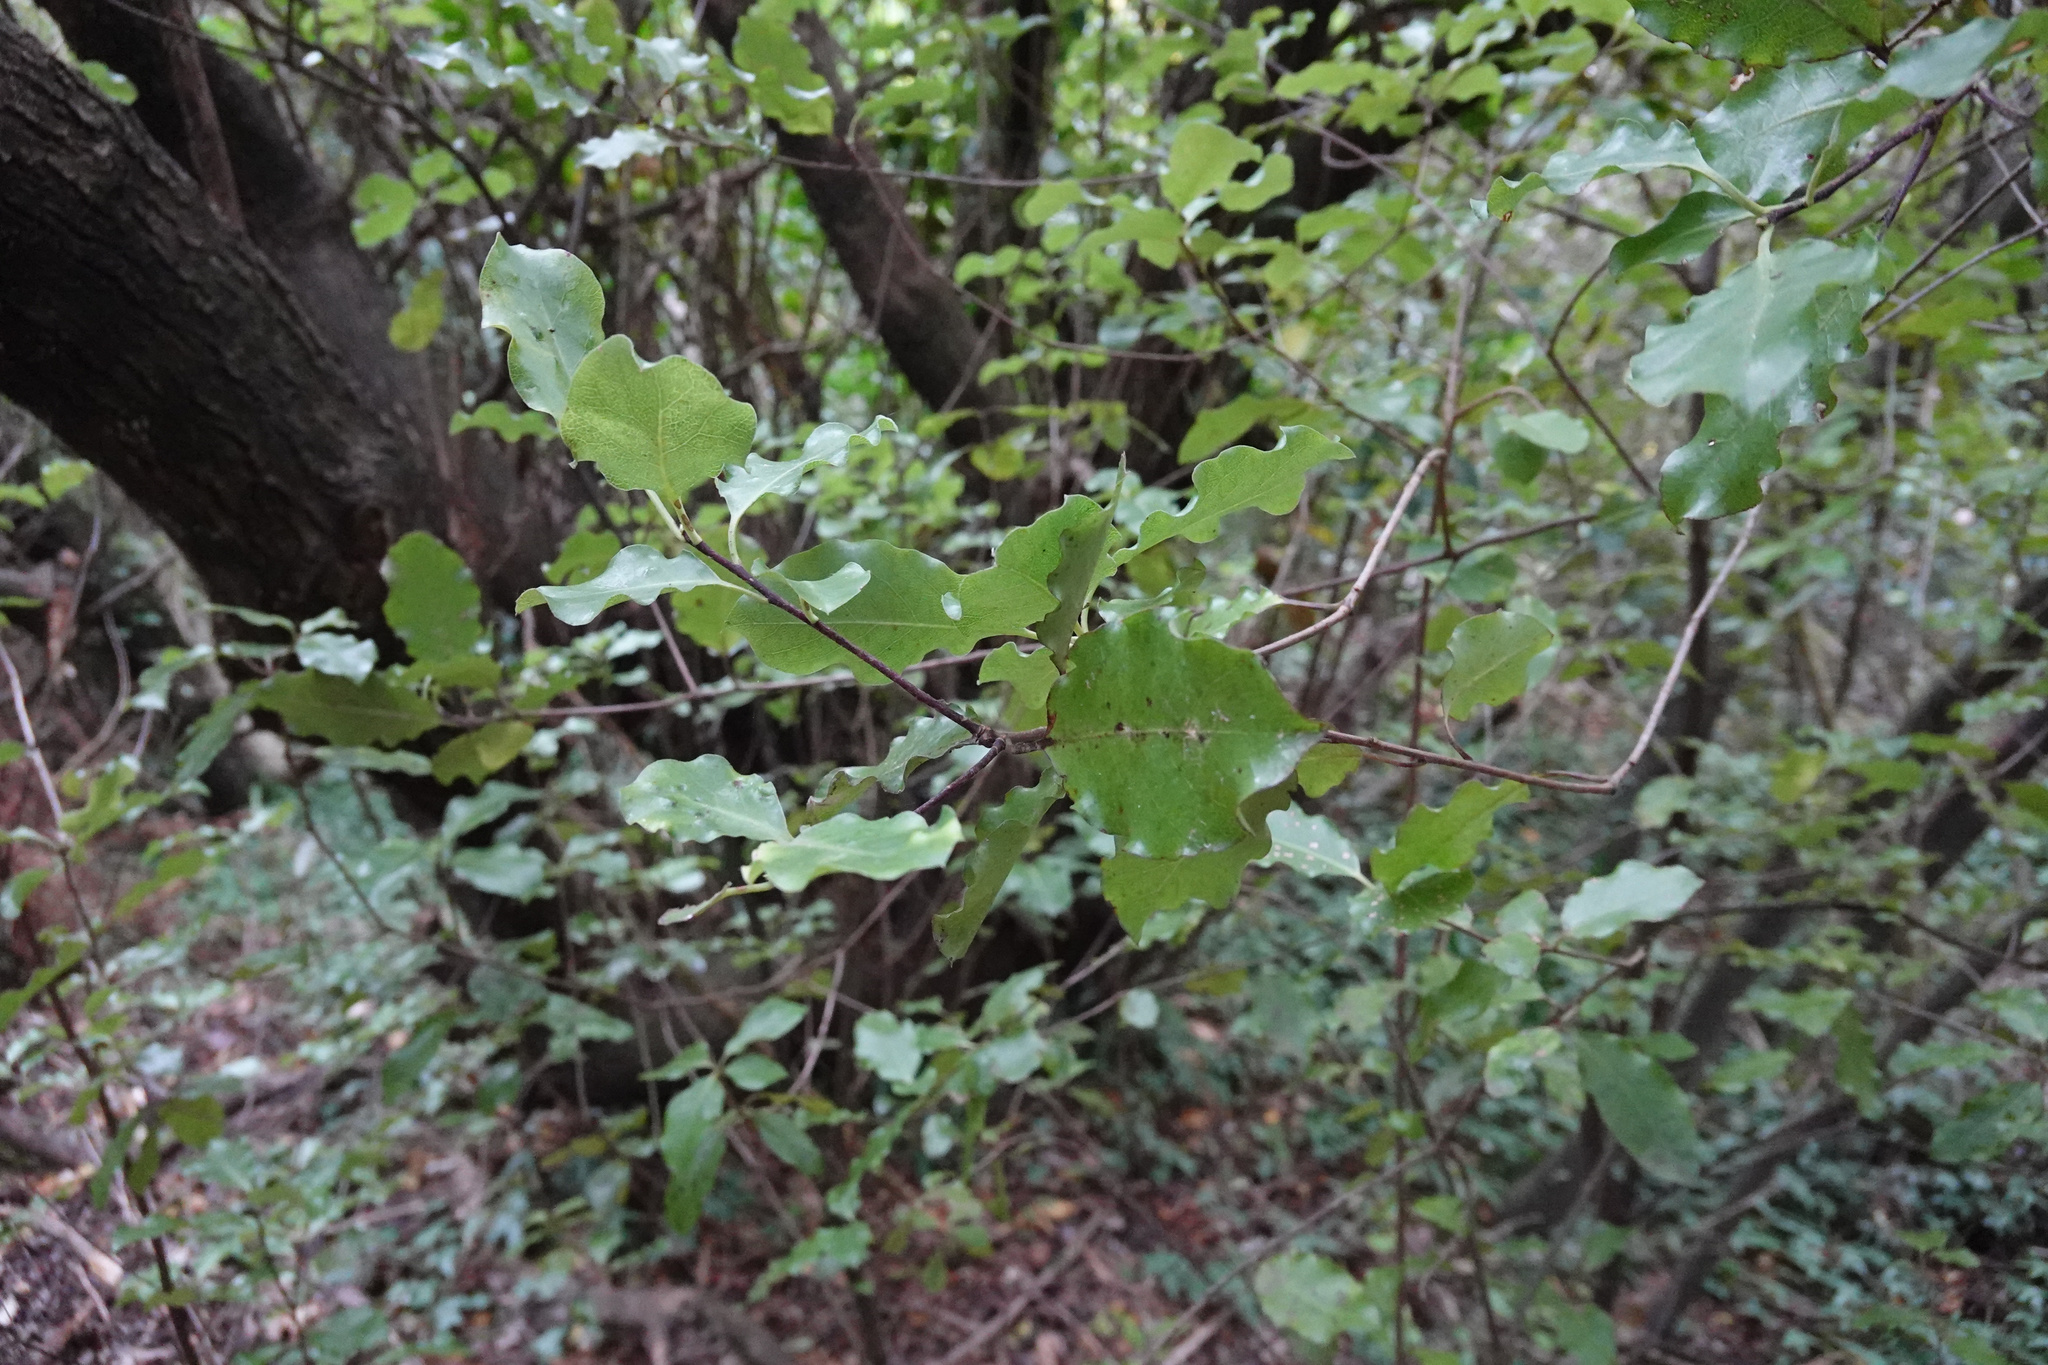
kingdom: Plantae
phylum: Tracheophyta
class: Magnoliopsida
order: Apiales
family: Pittosporaceae
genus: Pittosporum
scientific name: Pittosporum tenuifolium
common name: Kohuhu
